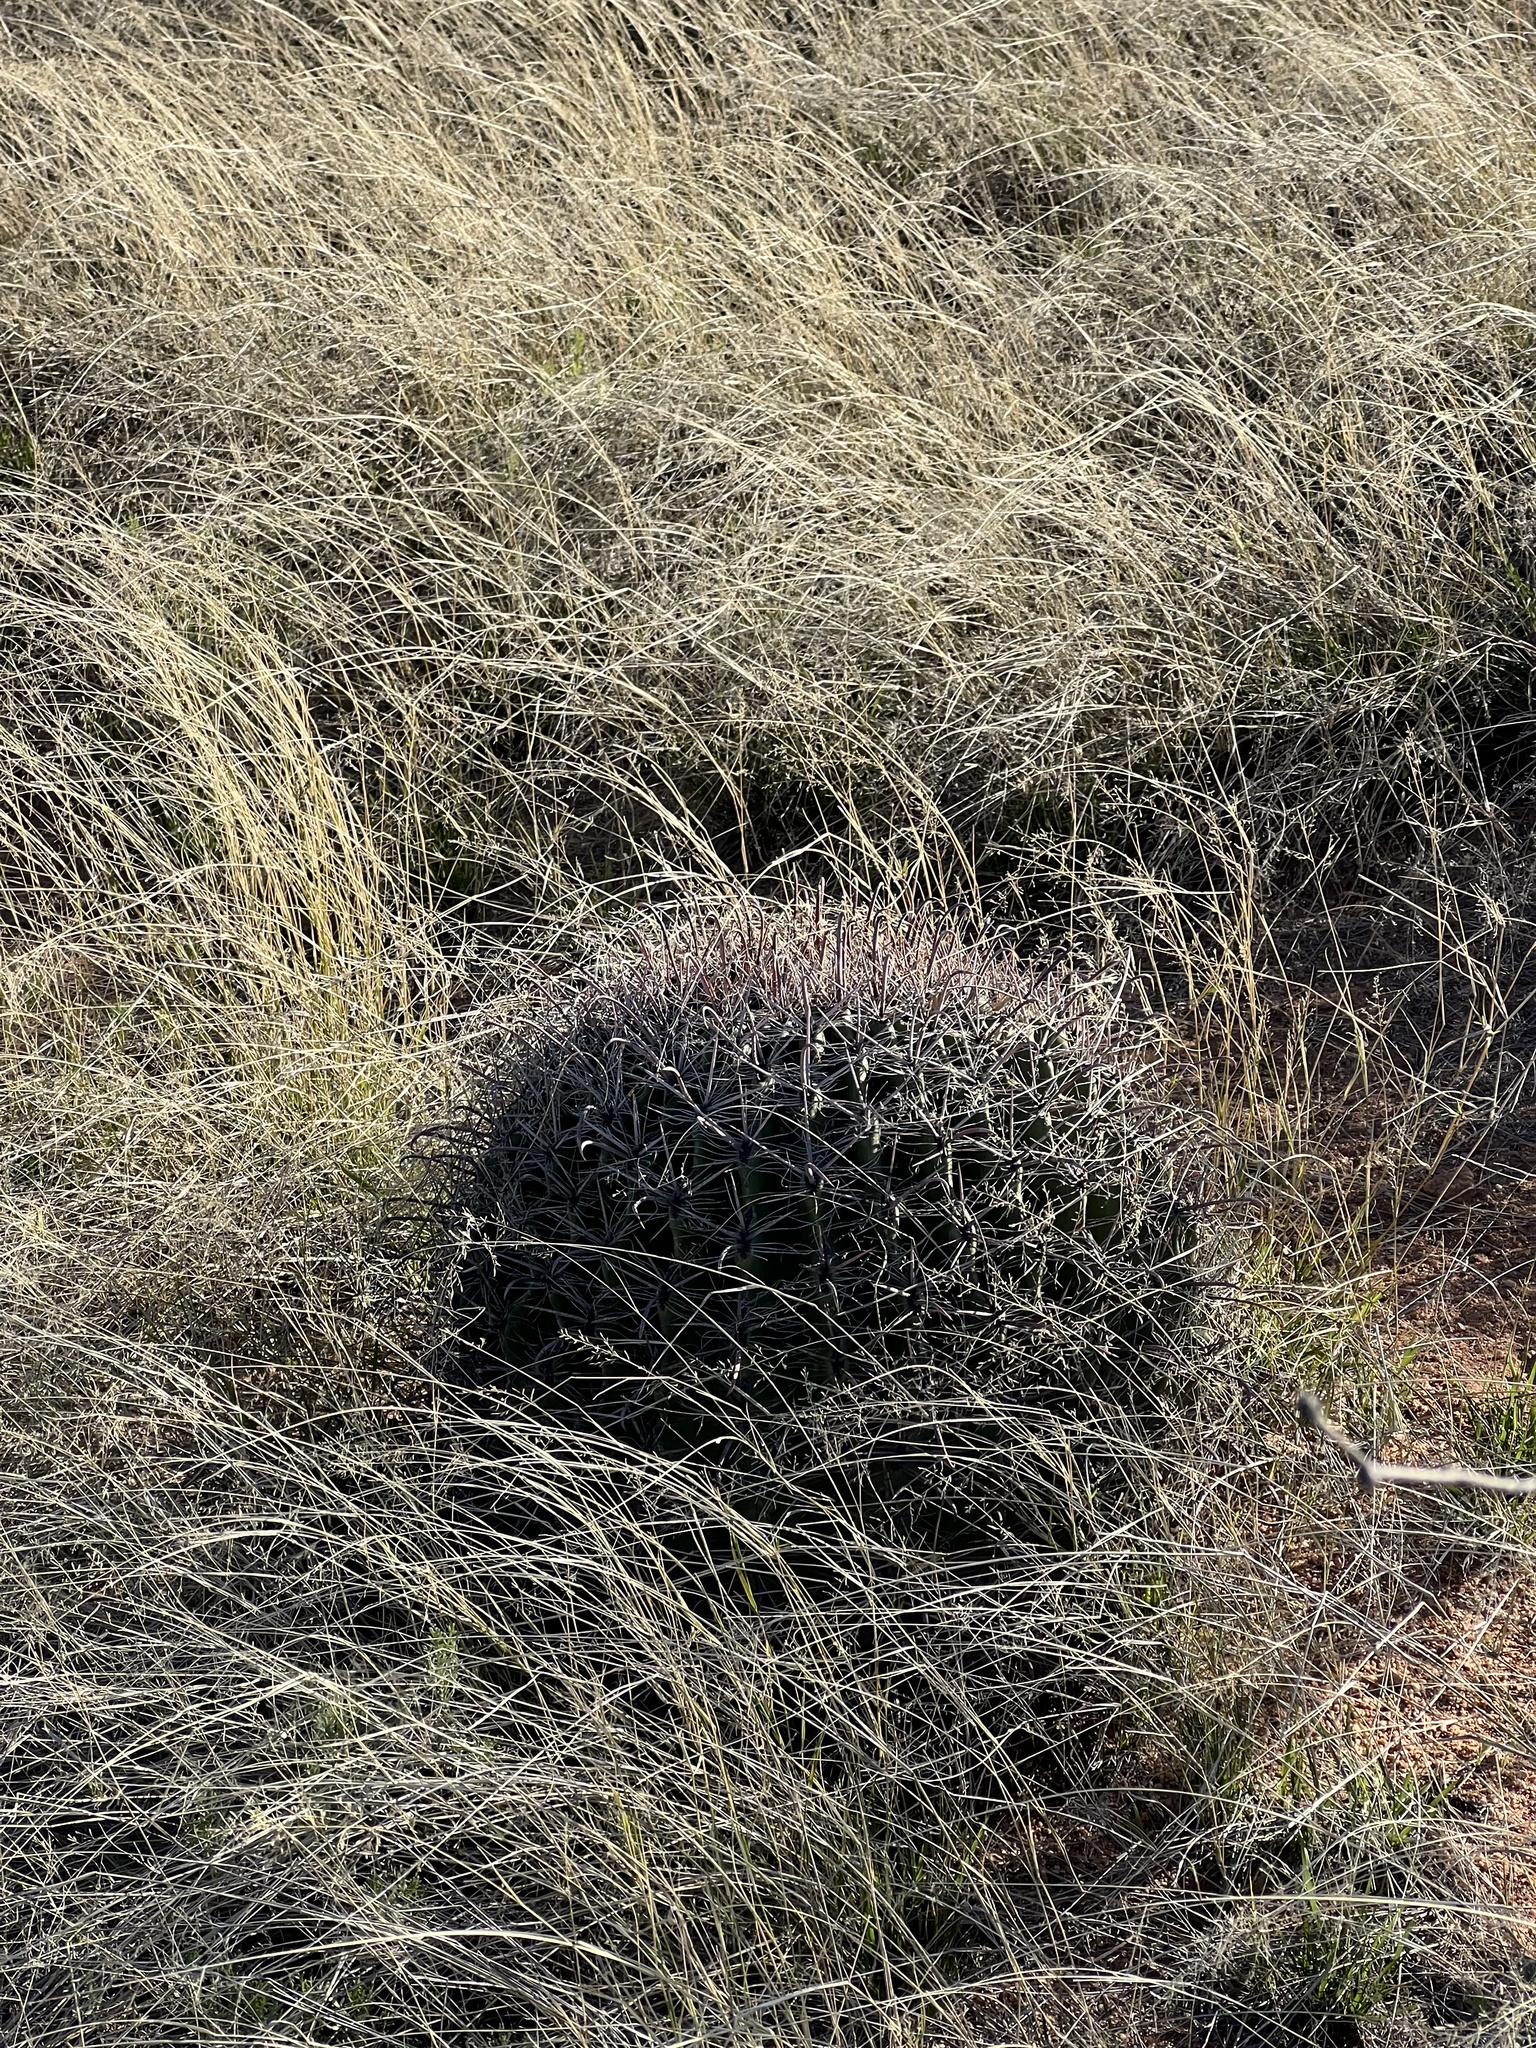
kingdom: Plantae
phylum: Tracheophyta
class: Magnoliopsida
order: Caryophyllales
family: Cactaceae
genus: Ferocactus
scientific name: Ferocactus wislizeni
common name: Candy barrel cactus
